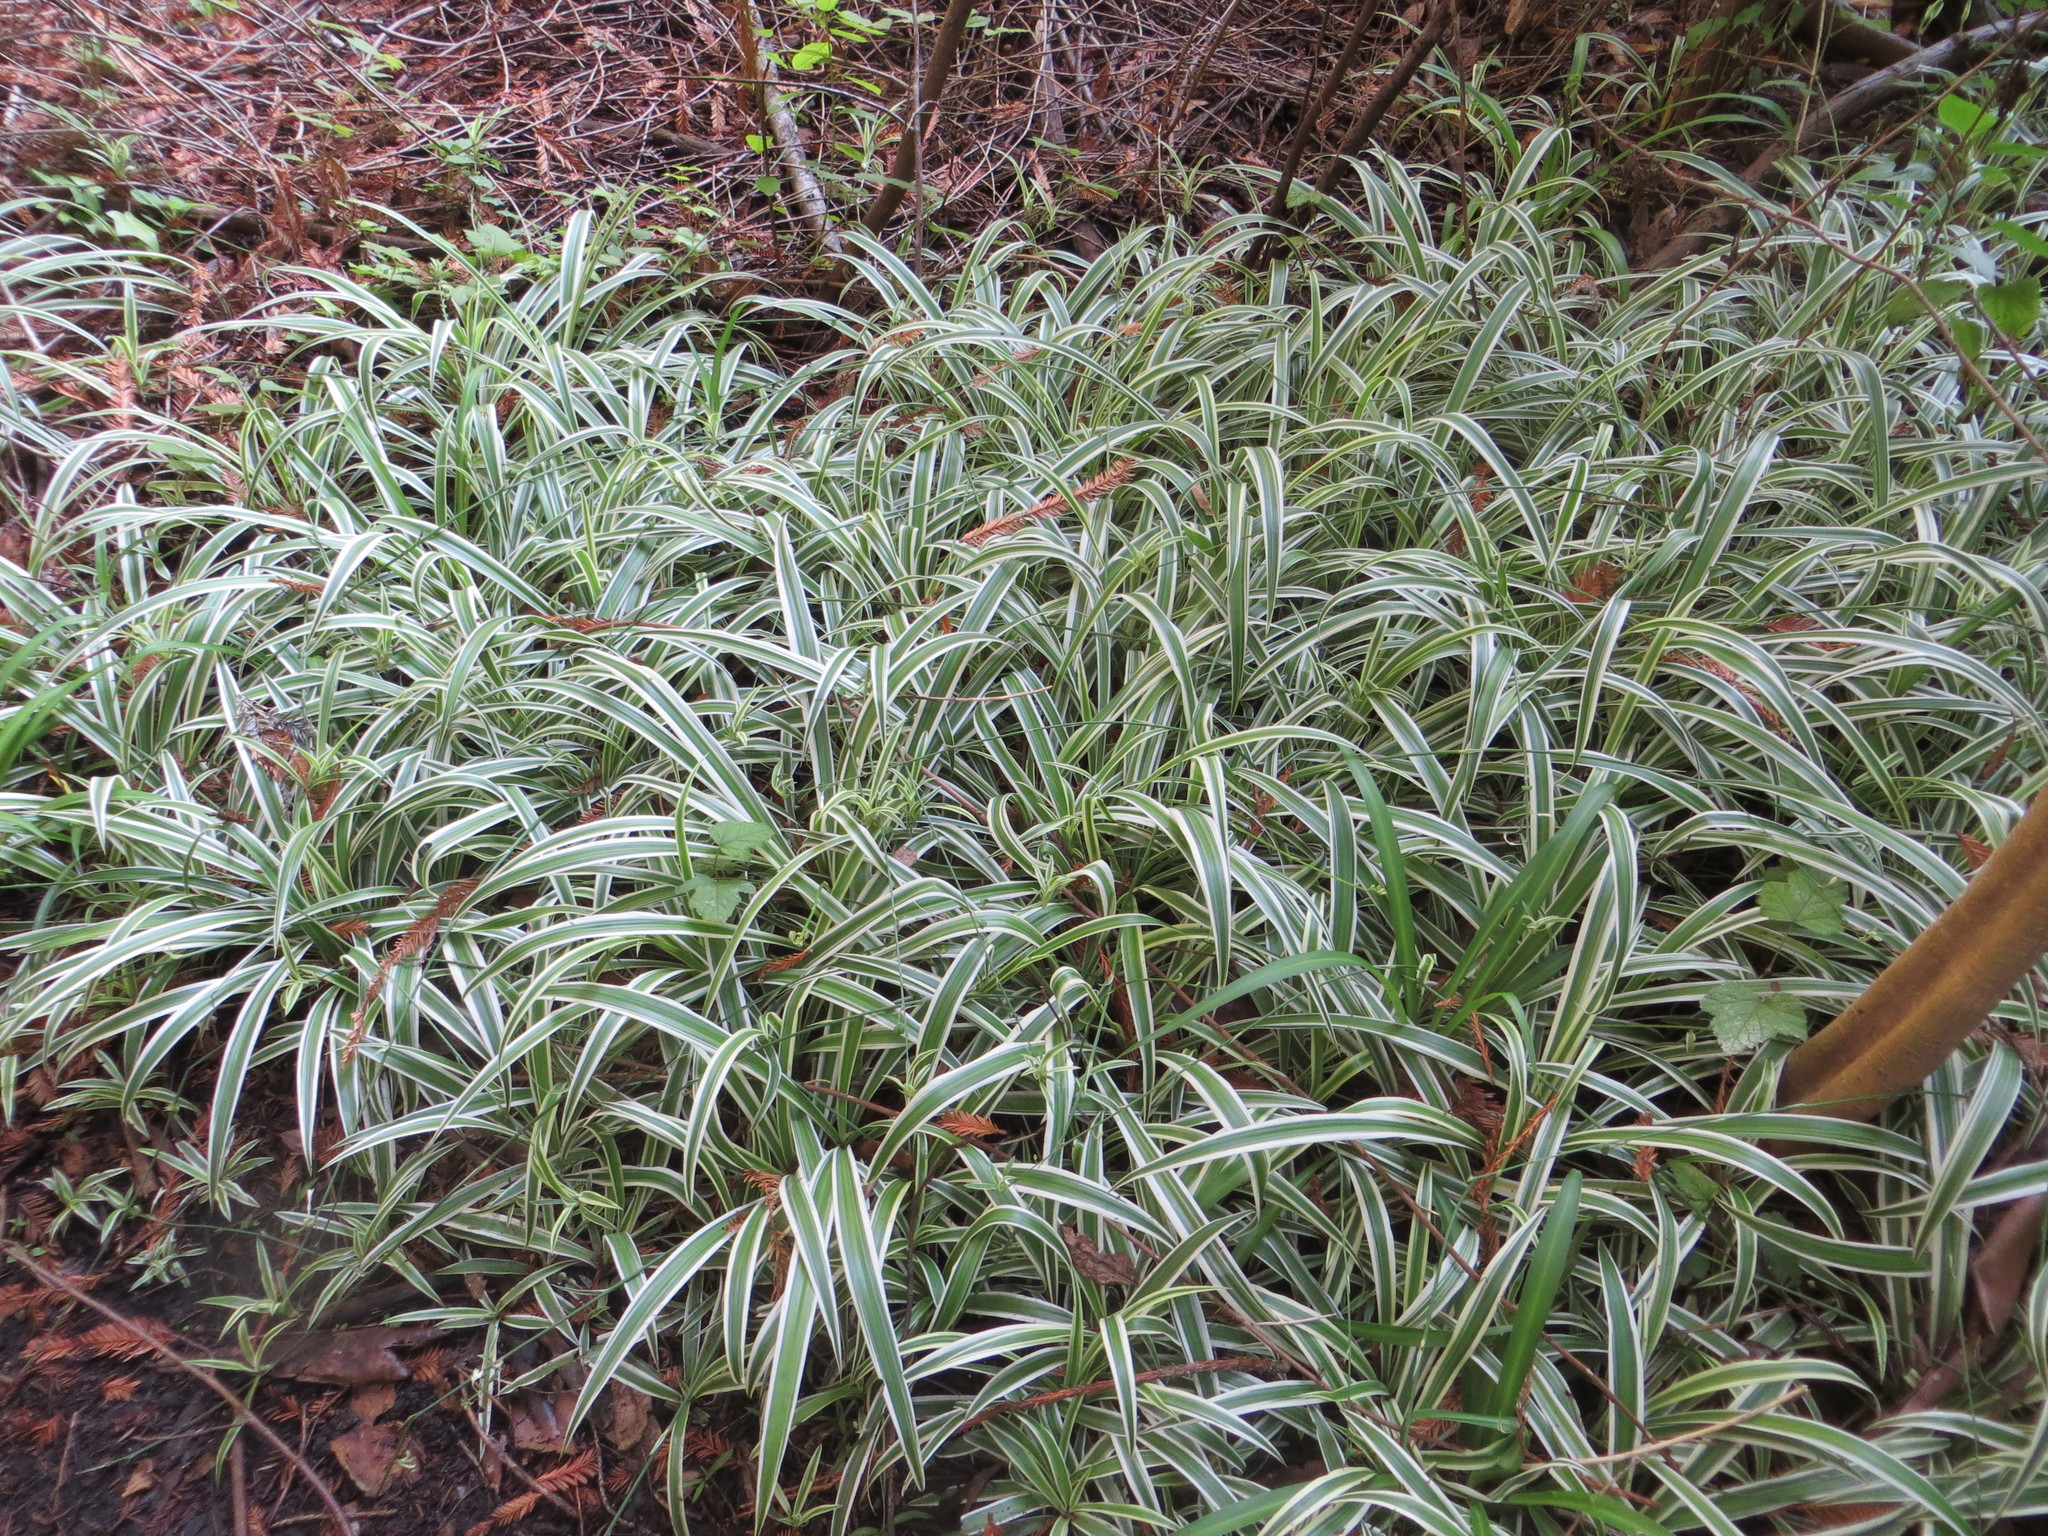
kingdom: Plantae
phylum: Tracheophyta
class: Liliopsida
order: Asparagales
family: Asparagaceae
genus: Chlorophytum
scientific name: Chlorophytum comosum
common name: Spider plant
